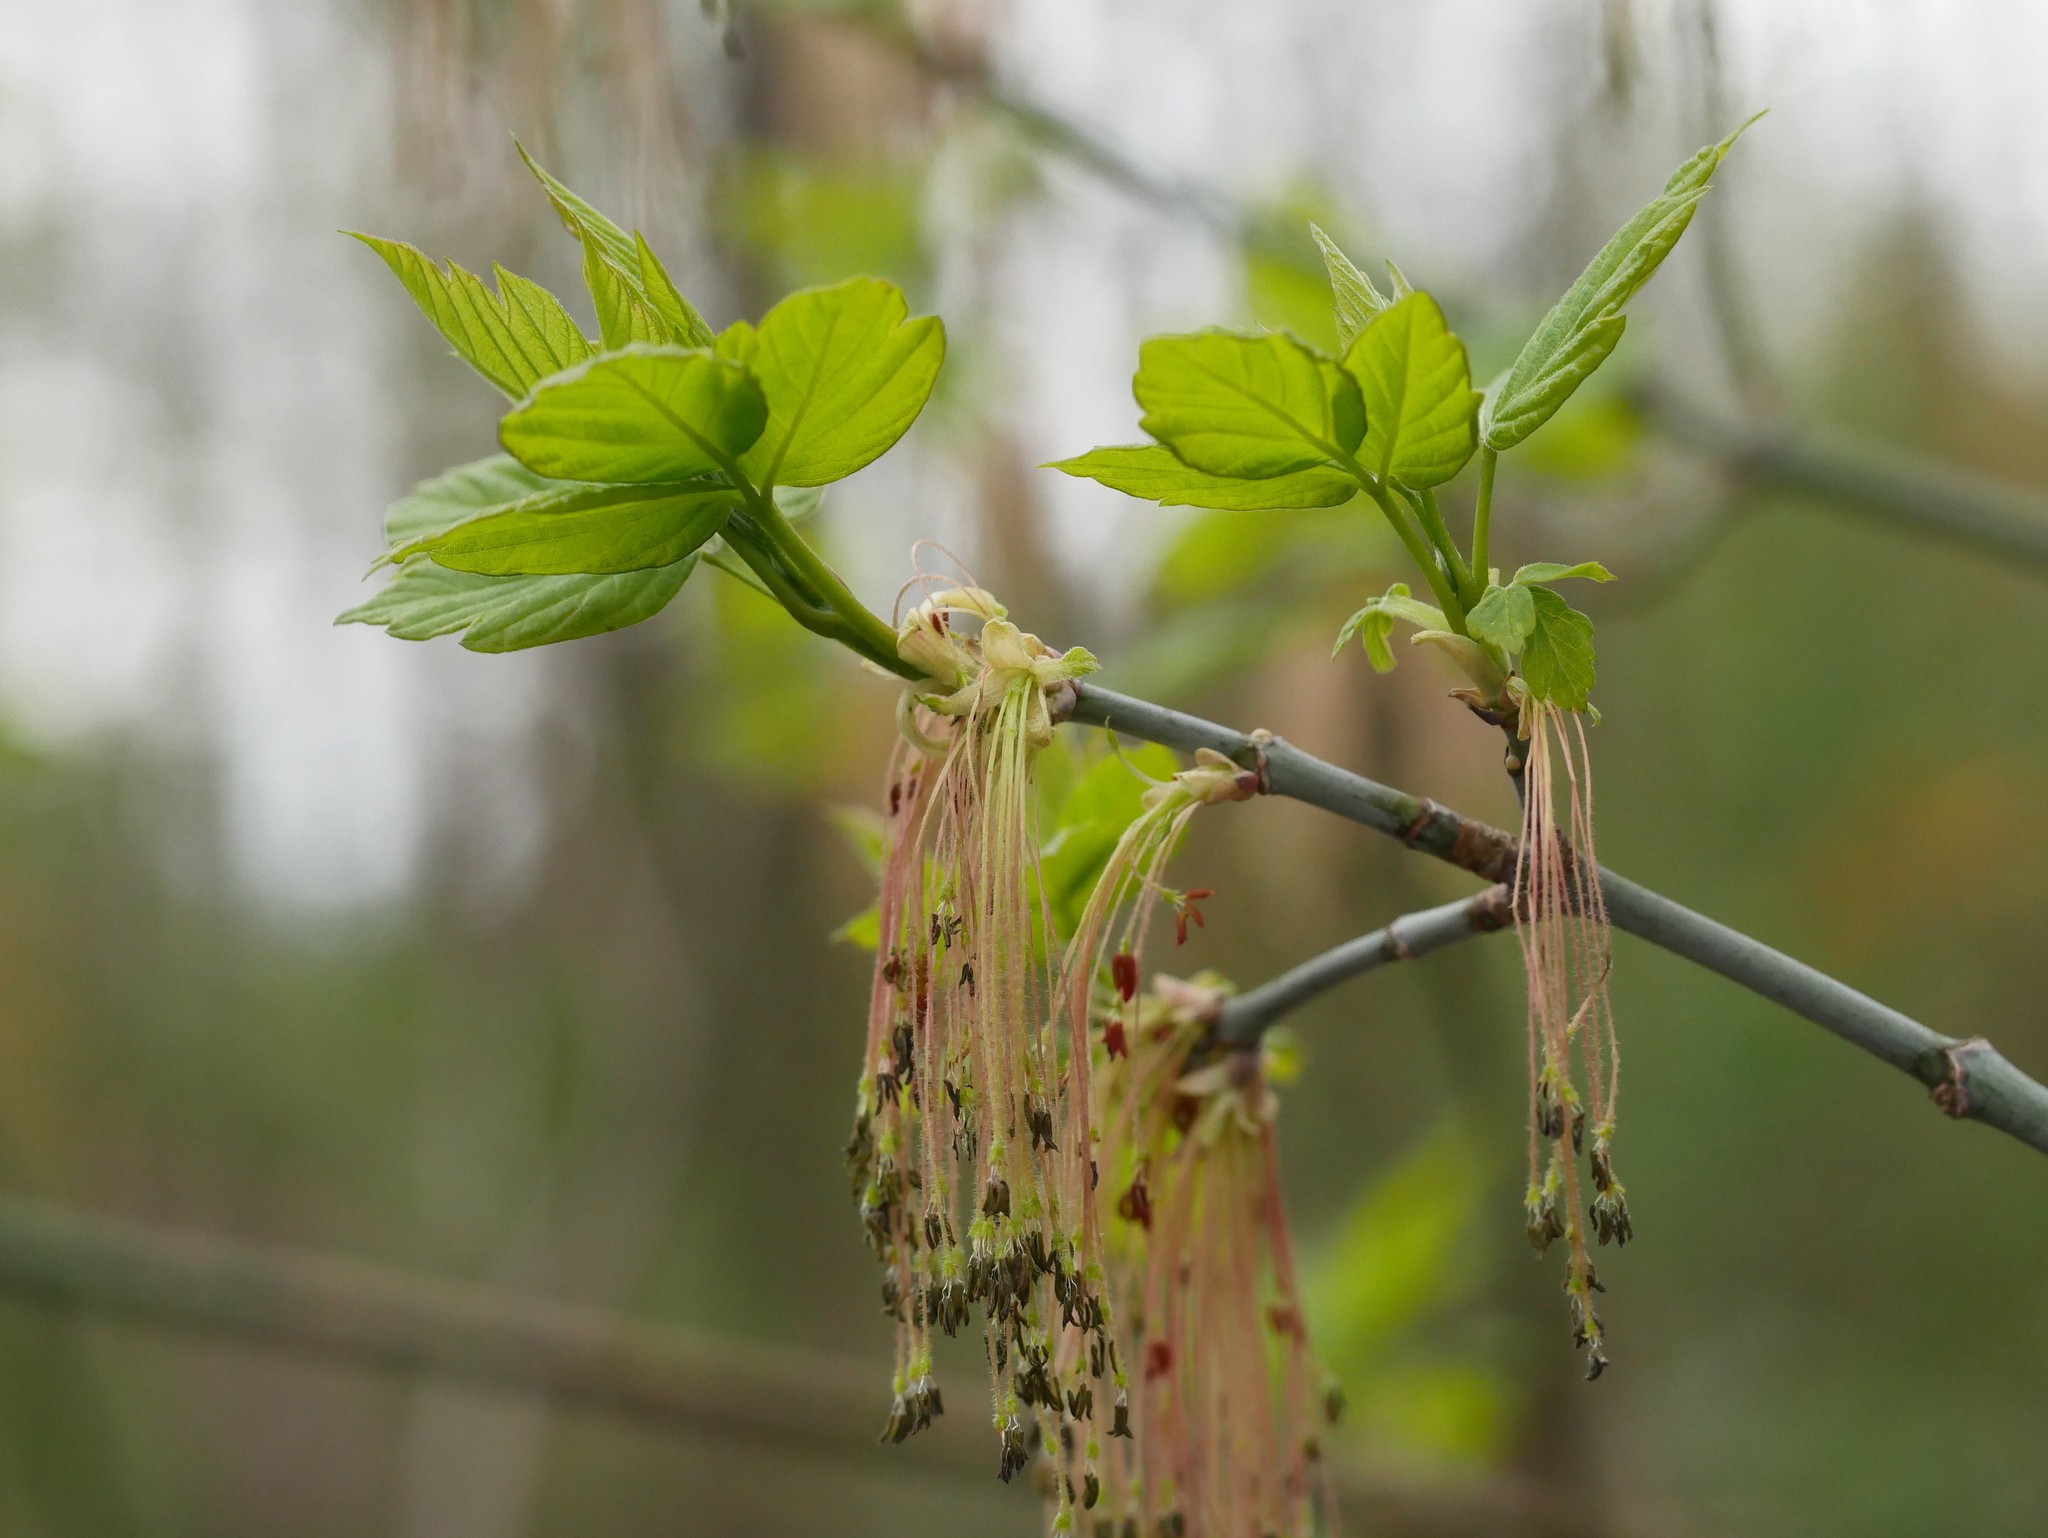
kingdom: Plantae
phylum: Tracheophyta
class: Magnoliopsida
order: Sapindales
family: Sapindaceae
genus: Acer
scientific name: Acer negundo
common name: Ashleaf maple
